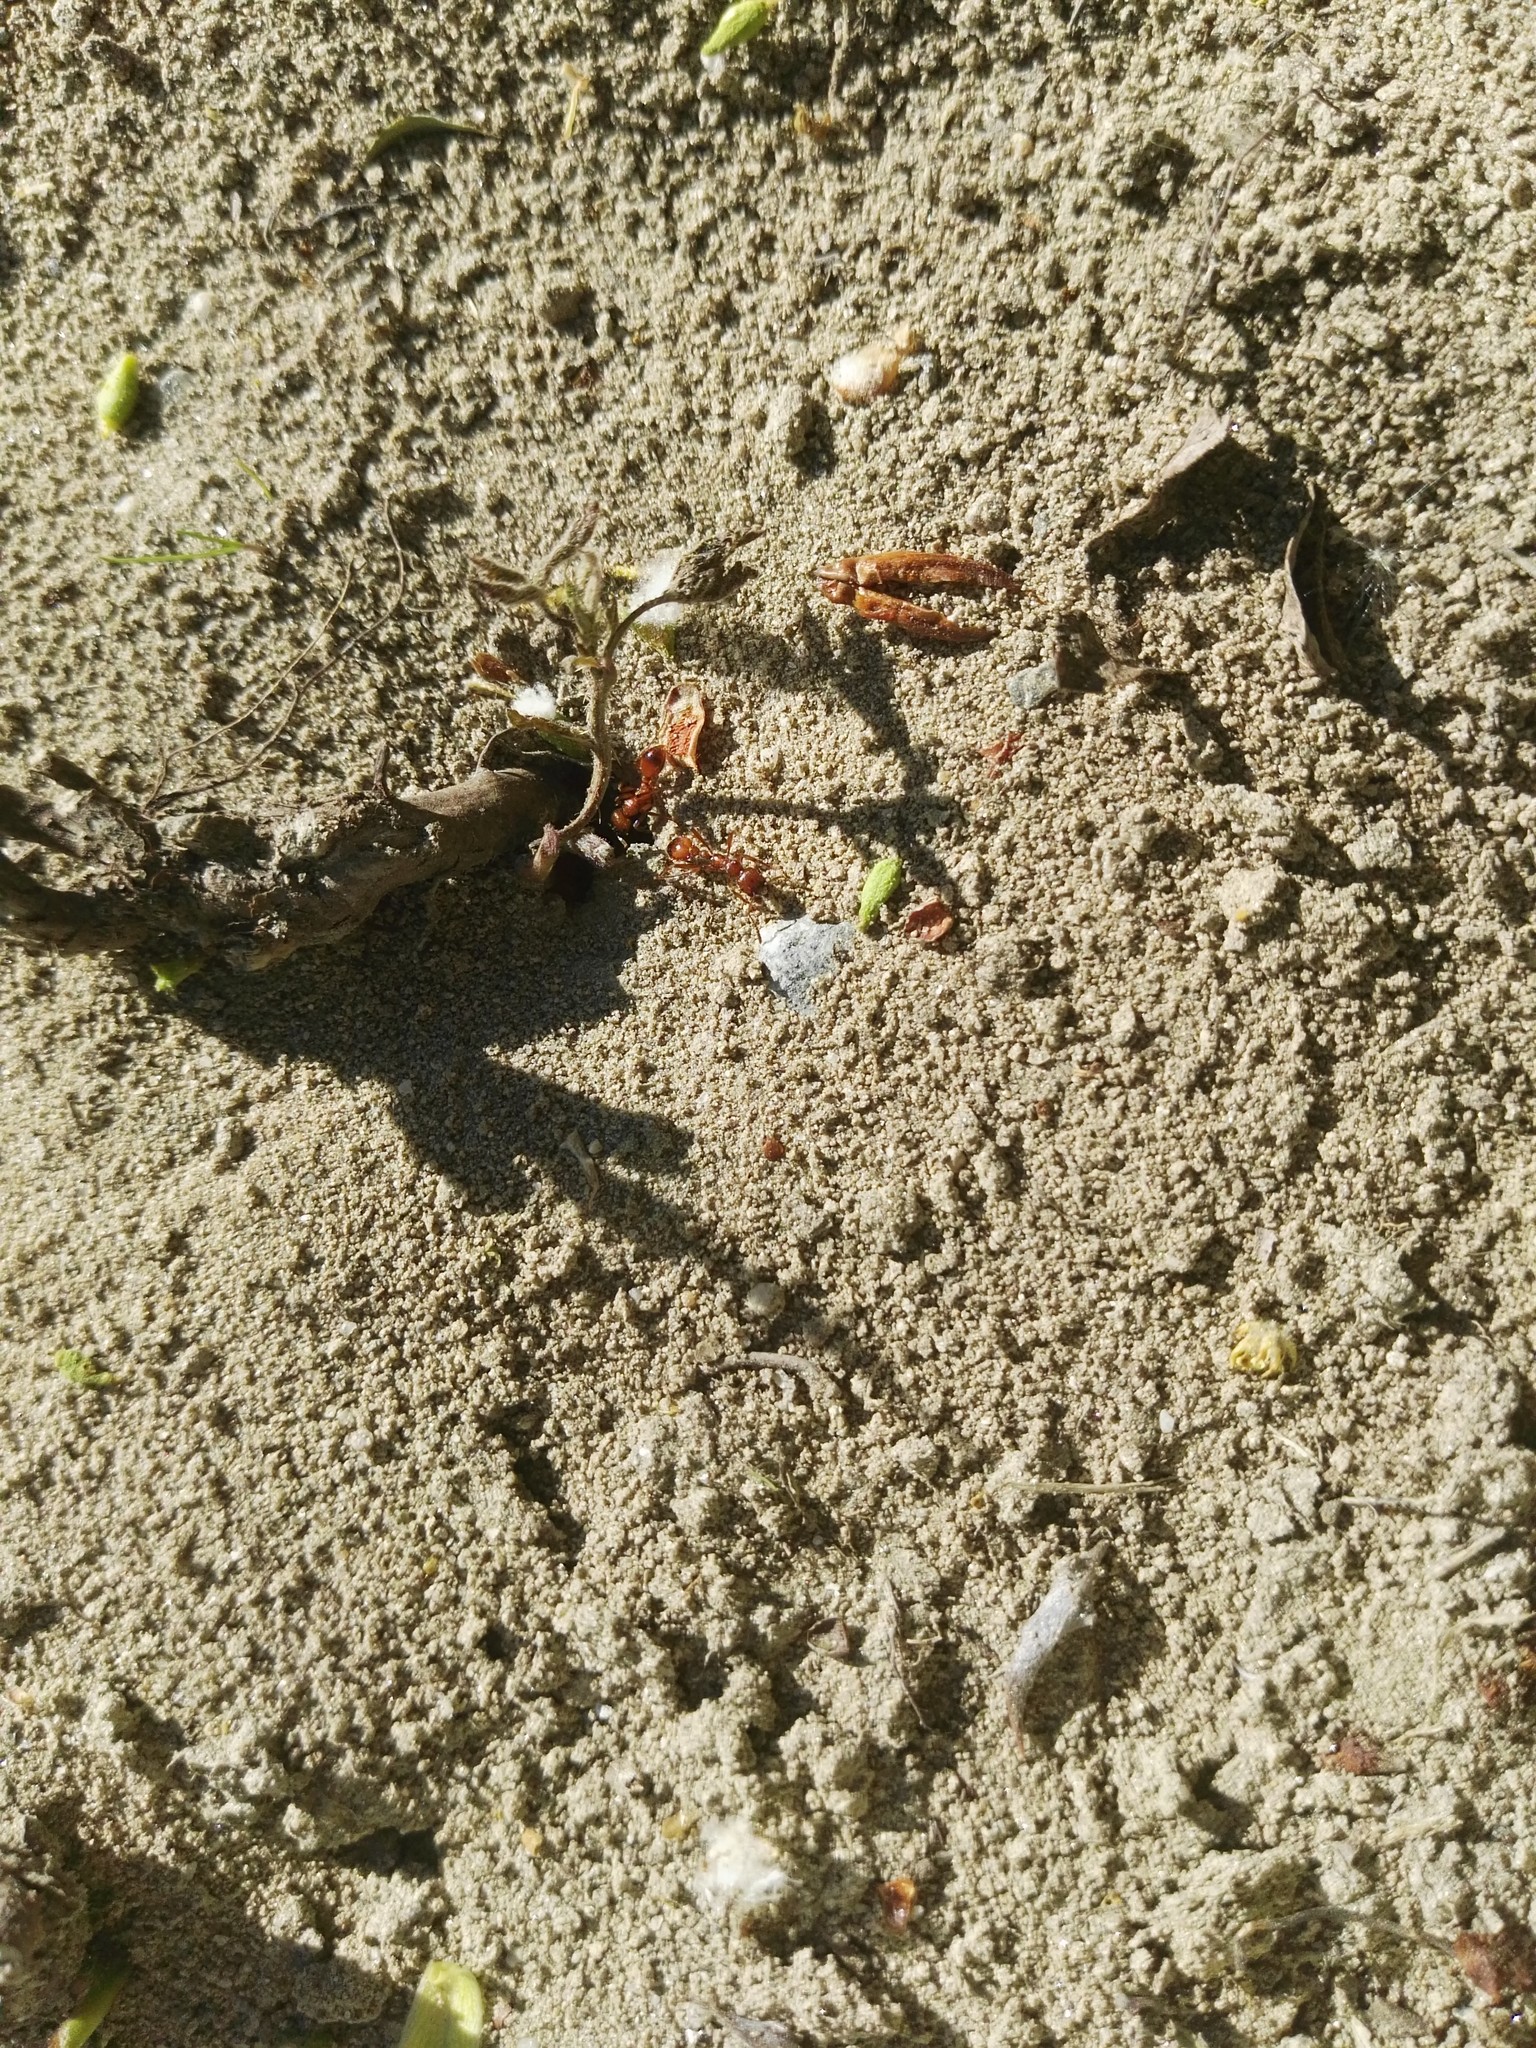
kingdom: Animalia
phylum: Arthropoda
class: Insecta
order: Hymenoptera
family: Formicidae
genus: Manica
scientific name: Manica rubida
